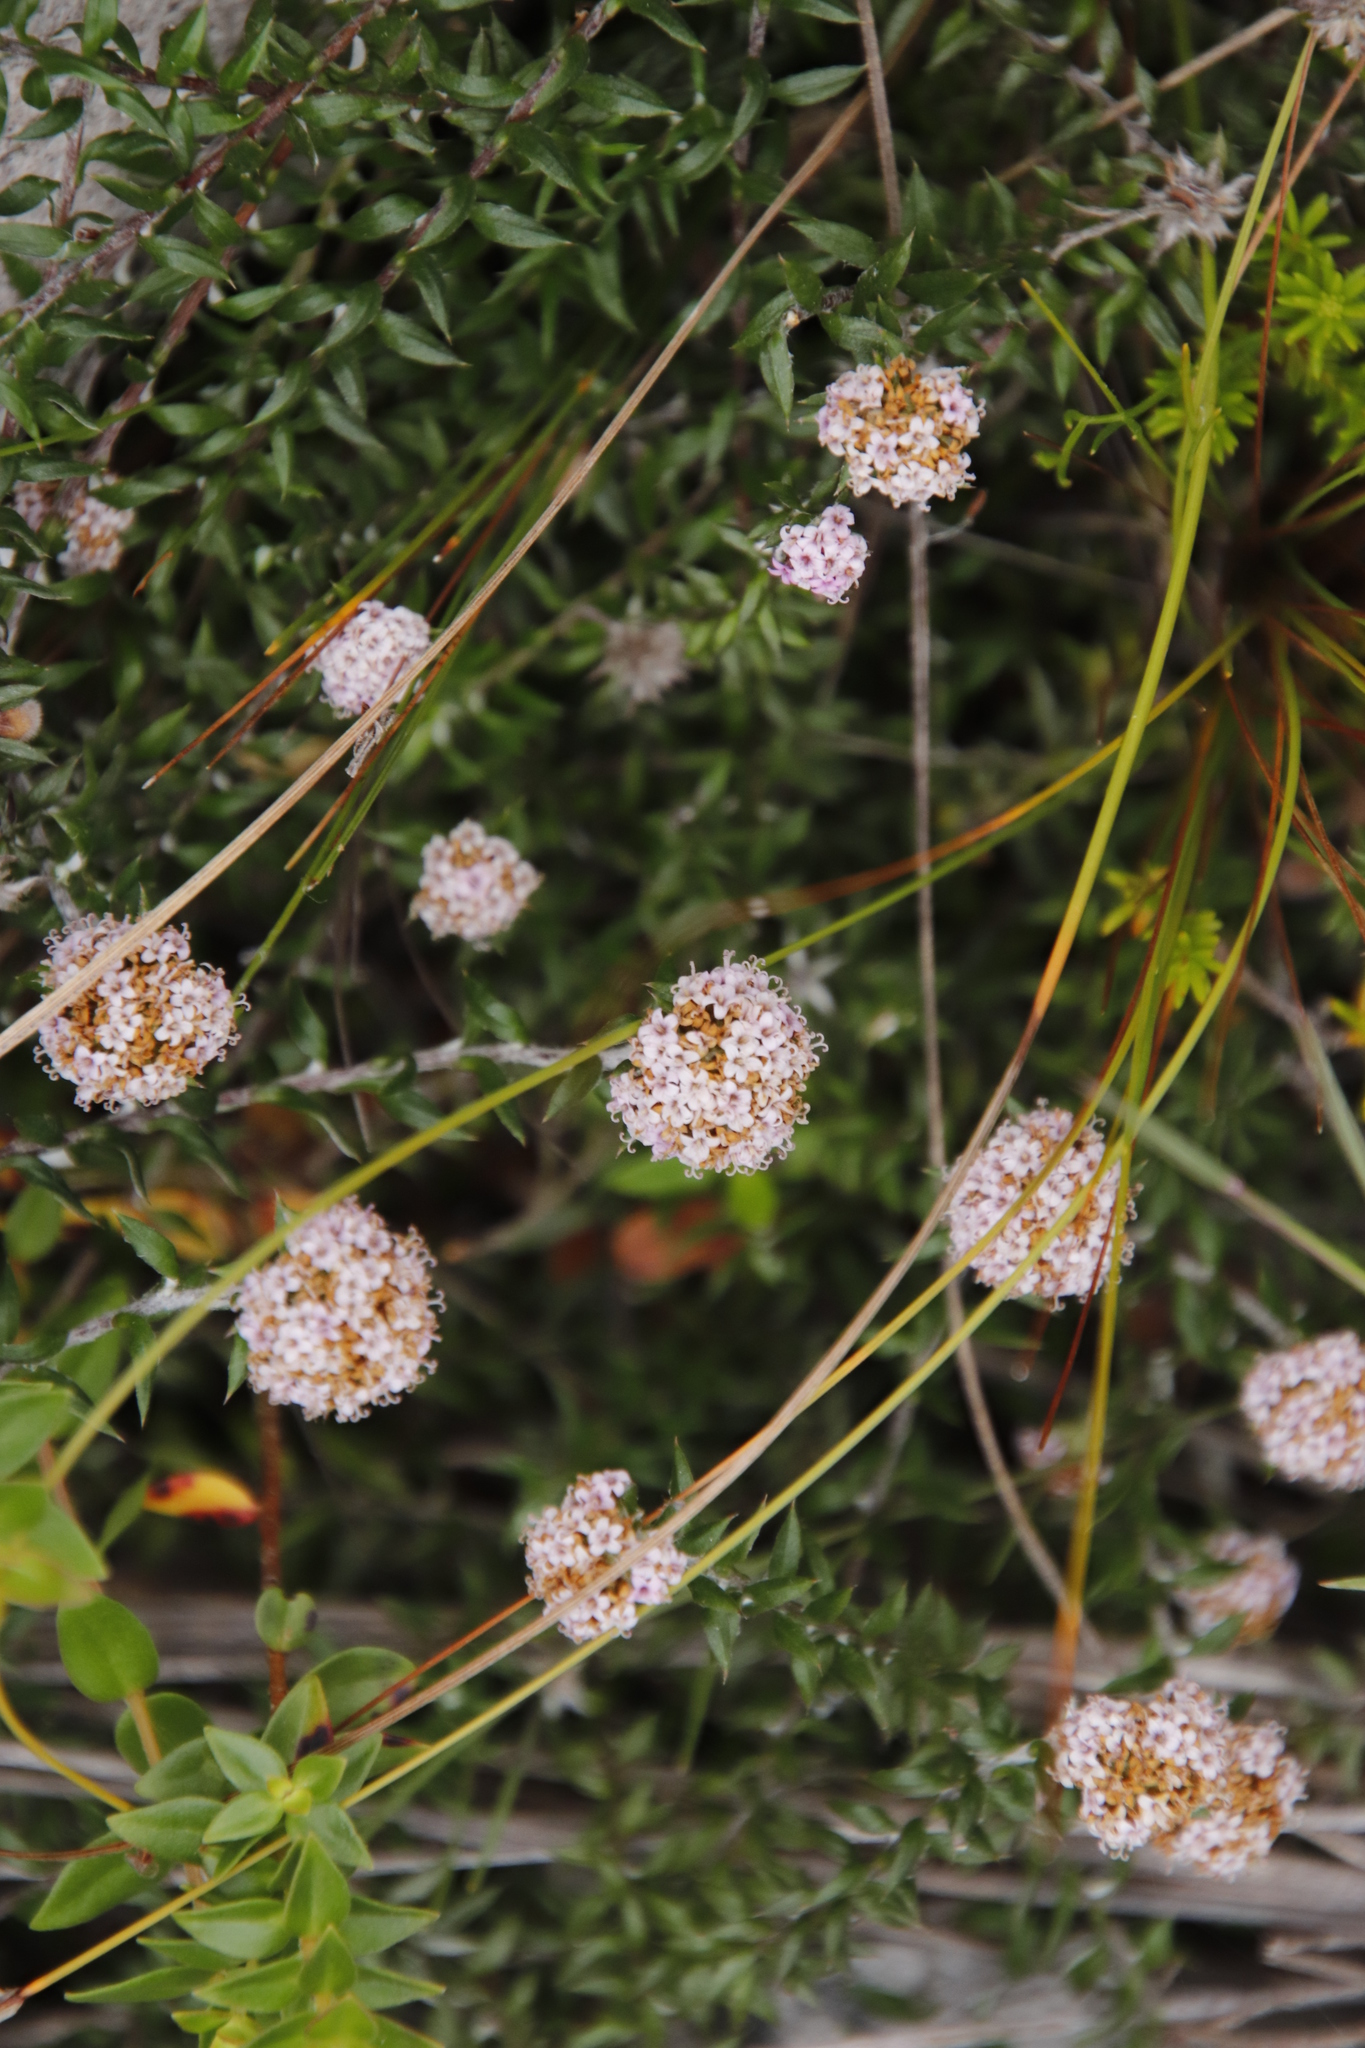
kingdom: Plantae
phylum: Tracheophyta
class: Magnoliopsida
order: Asterales
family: Asteraceae
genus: Stoebe
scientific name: Stoebe prostrata
